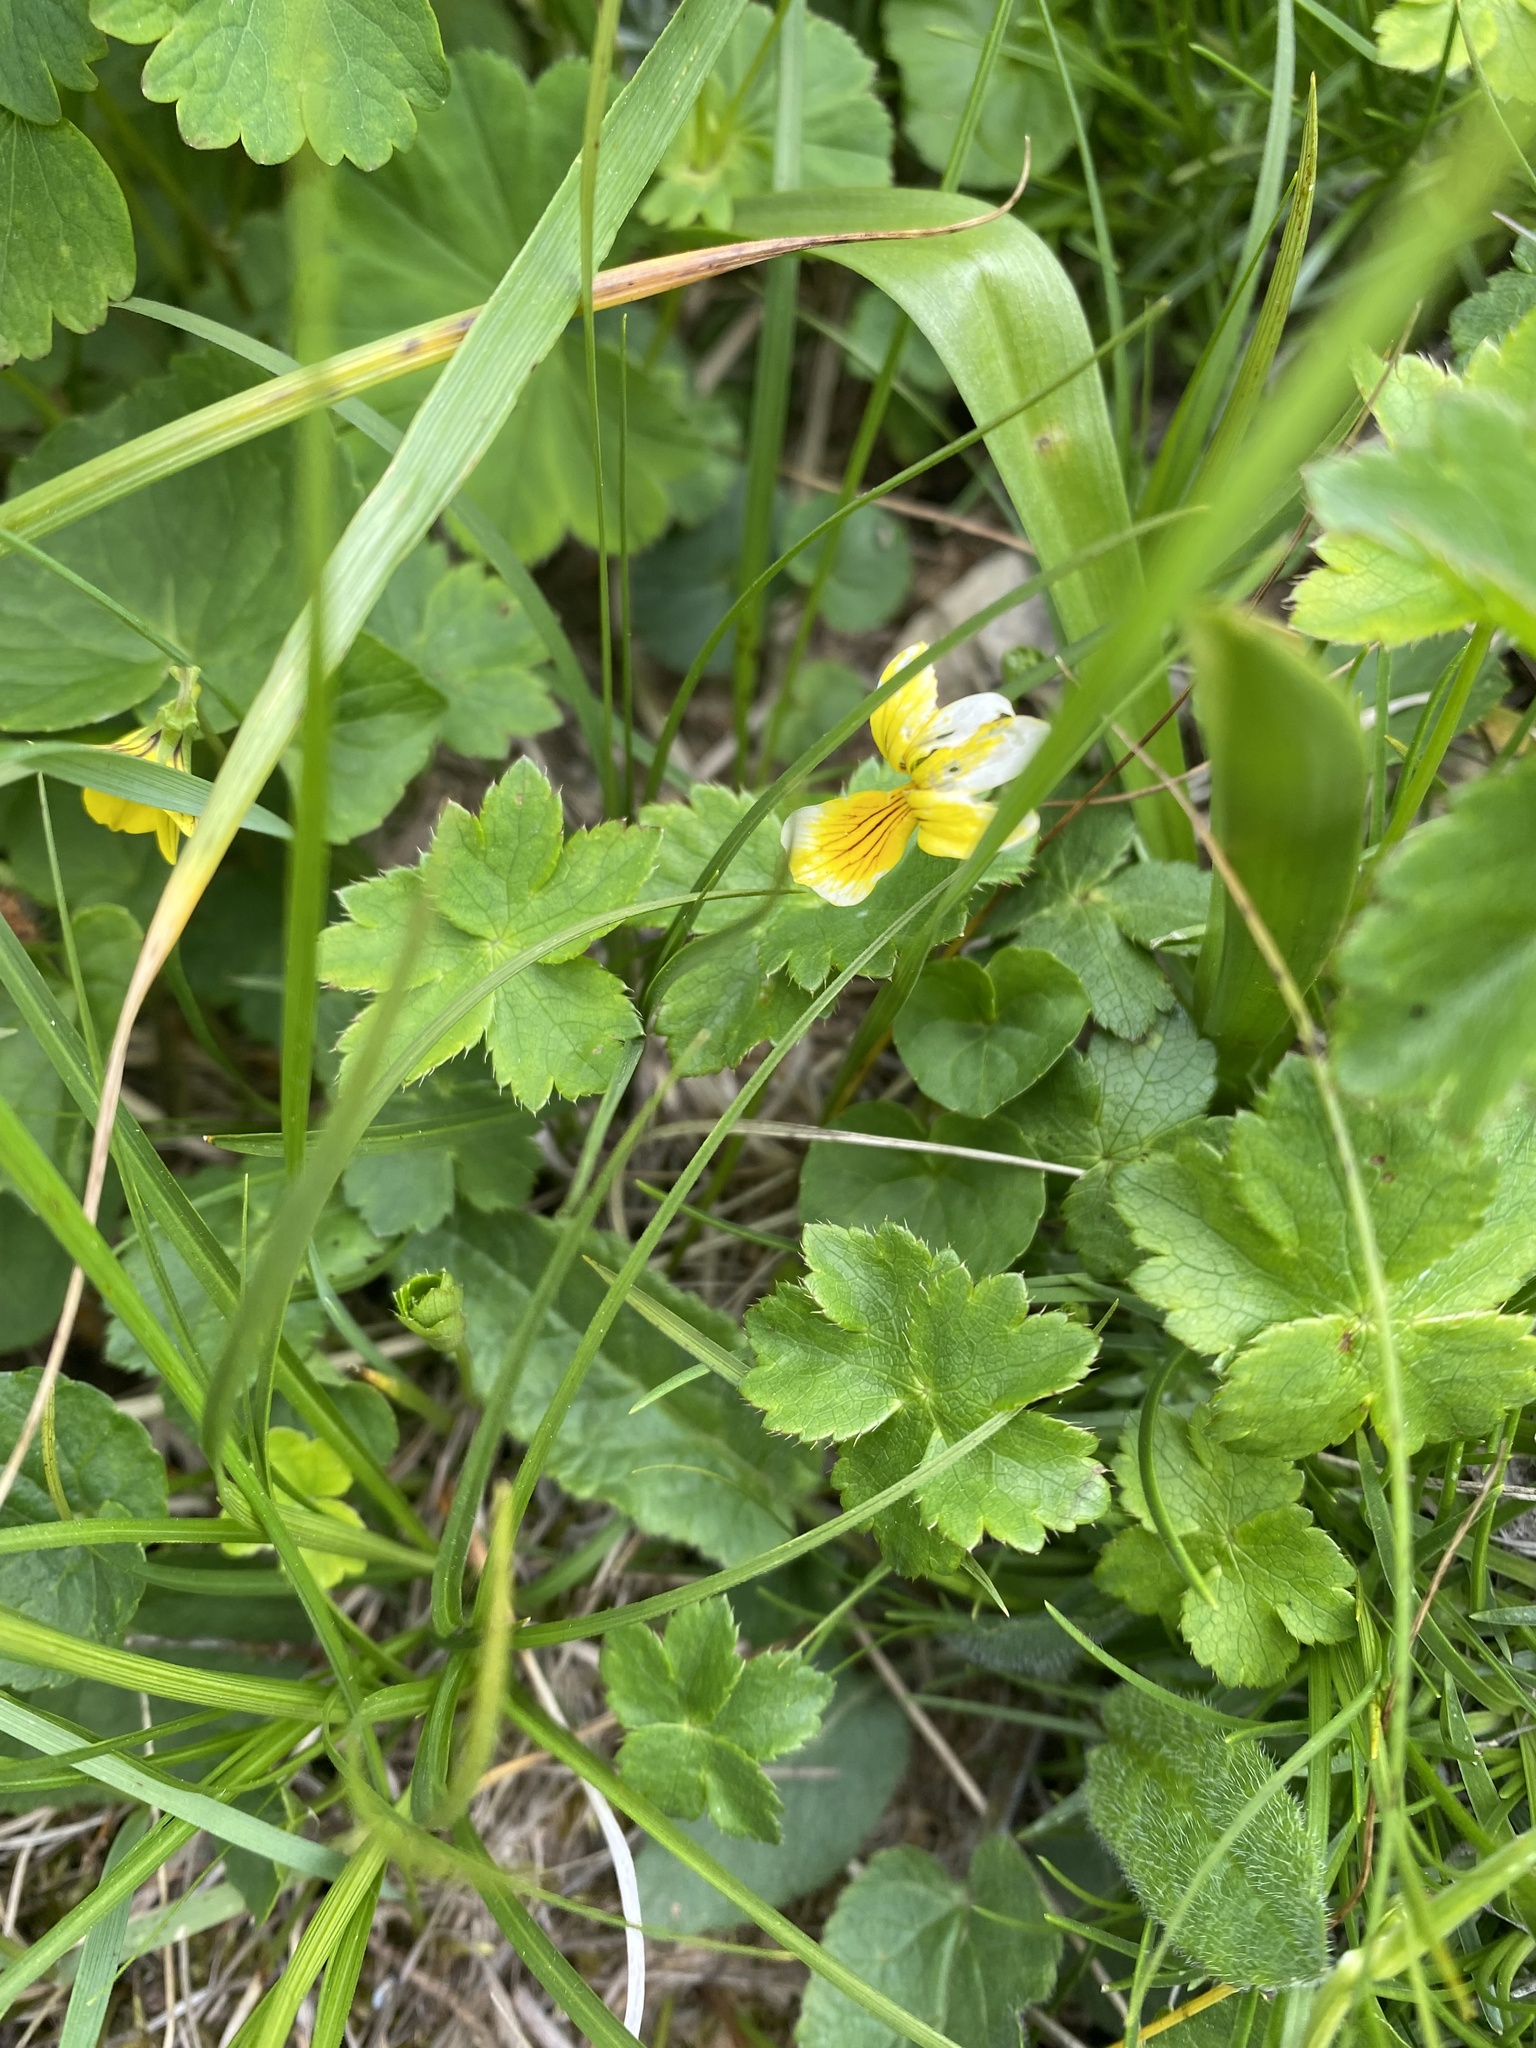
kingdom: Plantae
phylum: Tracheophyta
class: Magnoliopsida
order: Malpighiales
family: Violaceae
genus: Viola
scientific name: Viola caucasica
